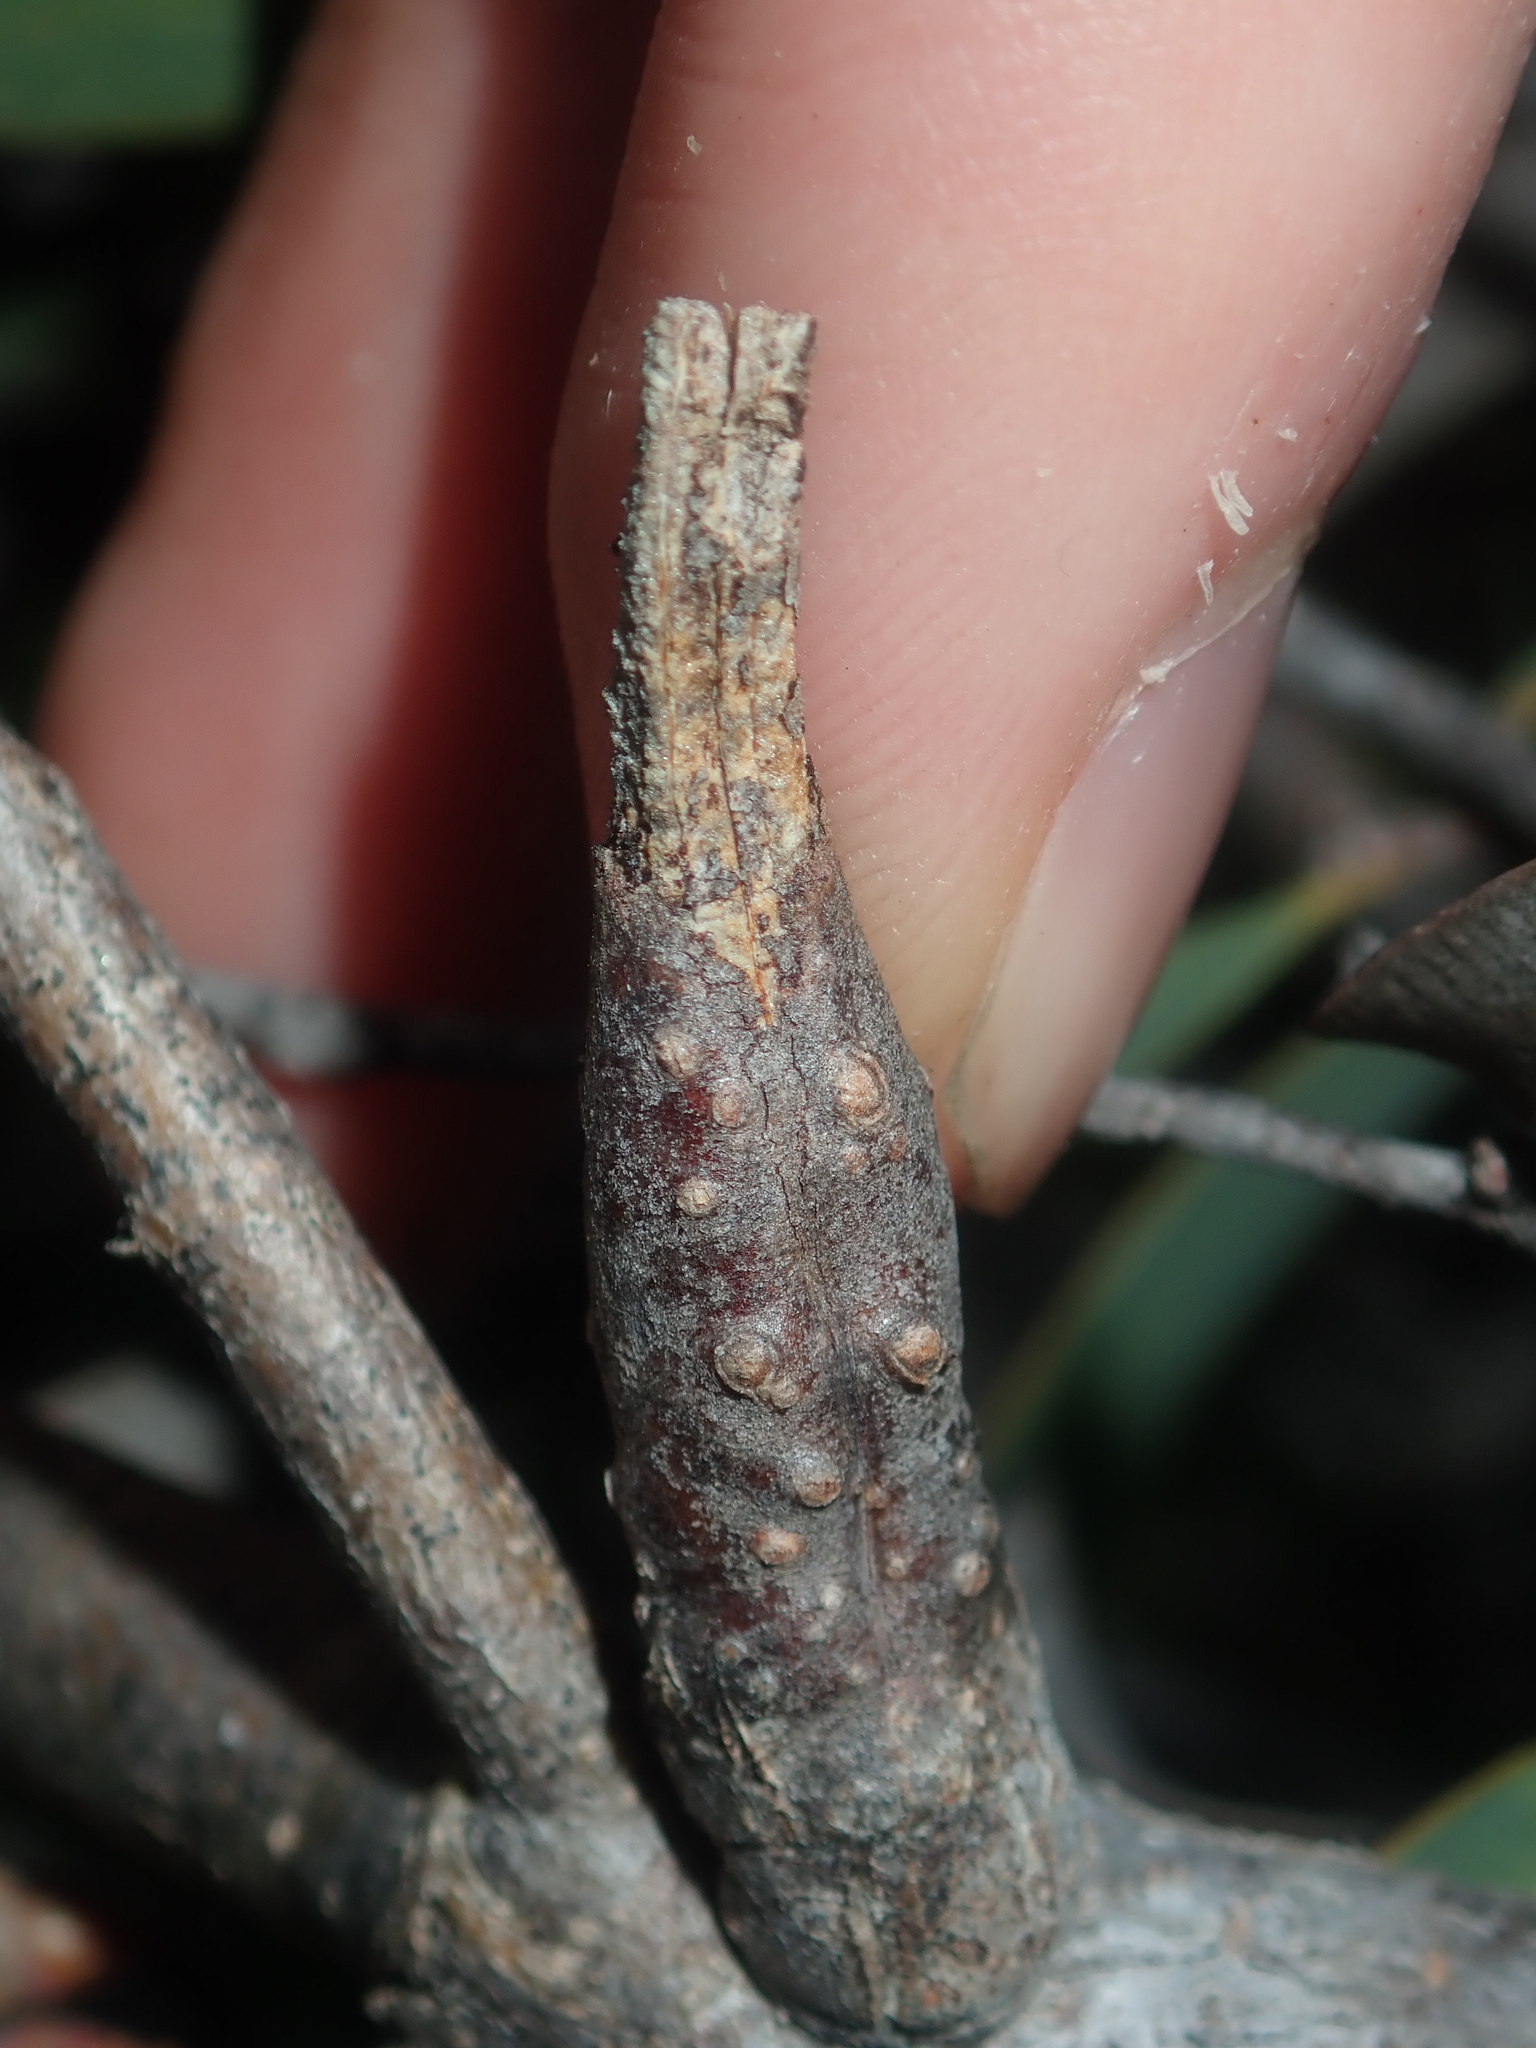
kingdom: Plantae
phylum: Tracheophyta
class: Magnoliopsida
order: Proteales
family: Proteaceae
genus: Hakea
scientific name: Hakea stenocarpa
